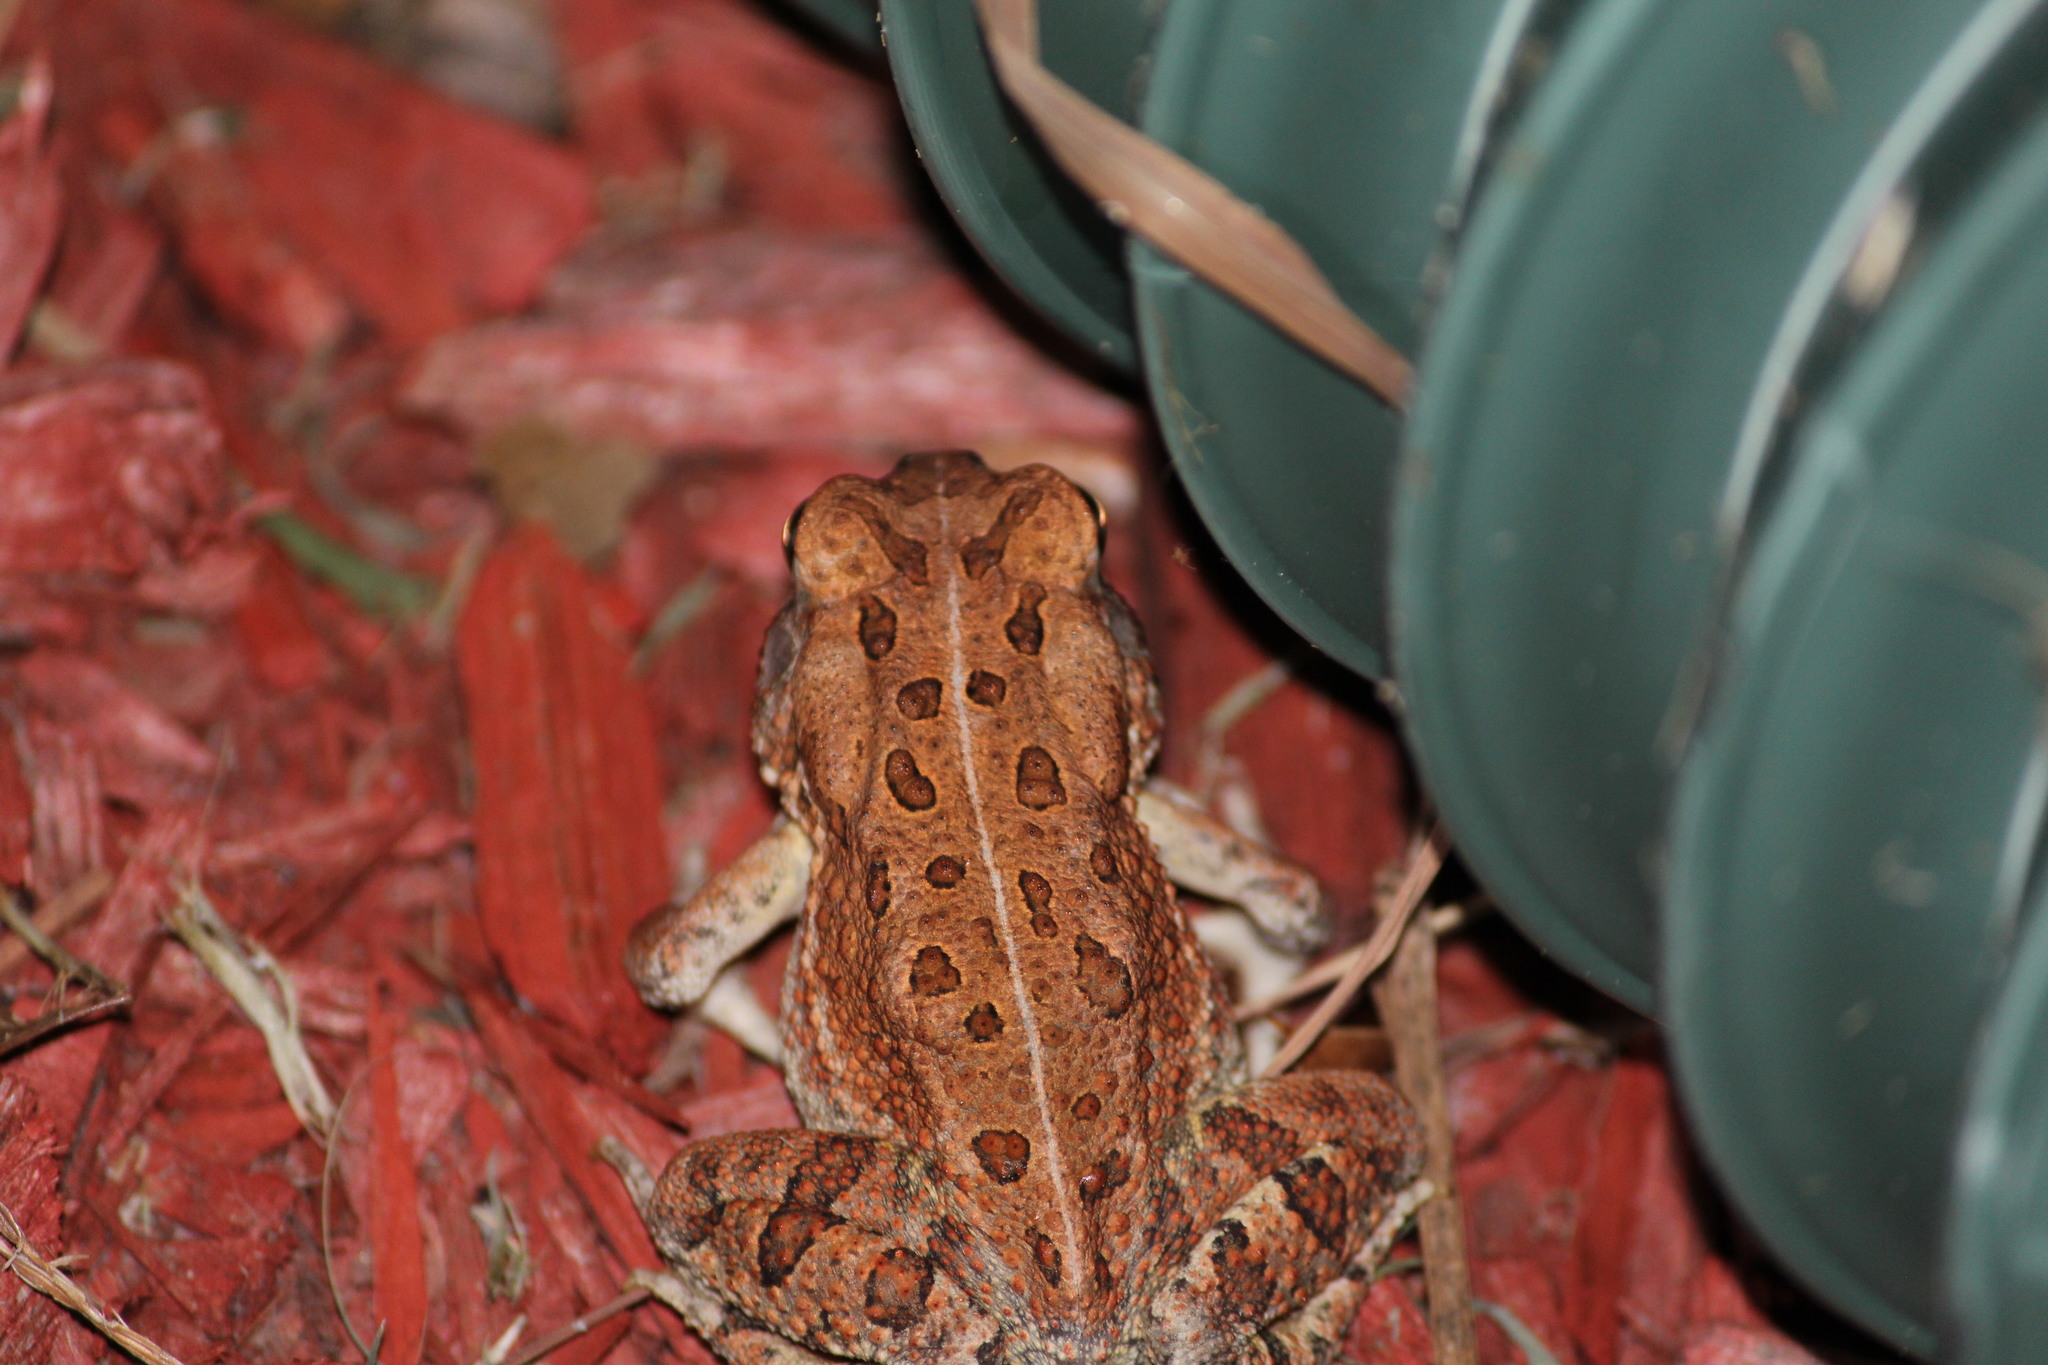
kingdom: Animalia
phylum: Chordata
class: Amphibia
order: Anura
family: Bufonidae
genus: Anaxyrus
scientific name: Anaxyrus fowleri
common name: Fowler's toad
